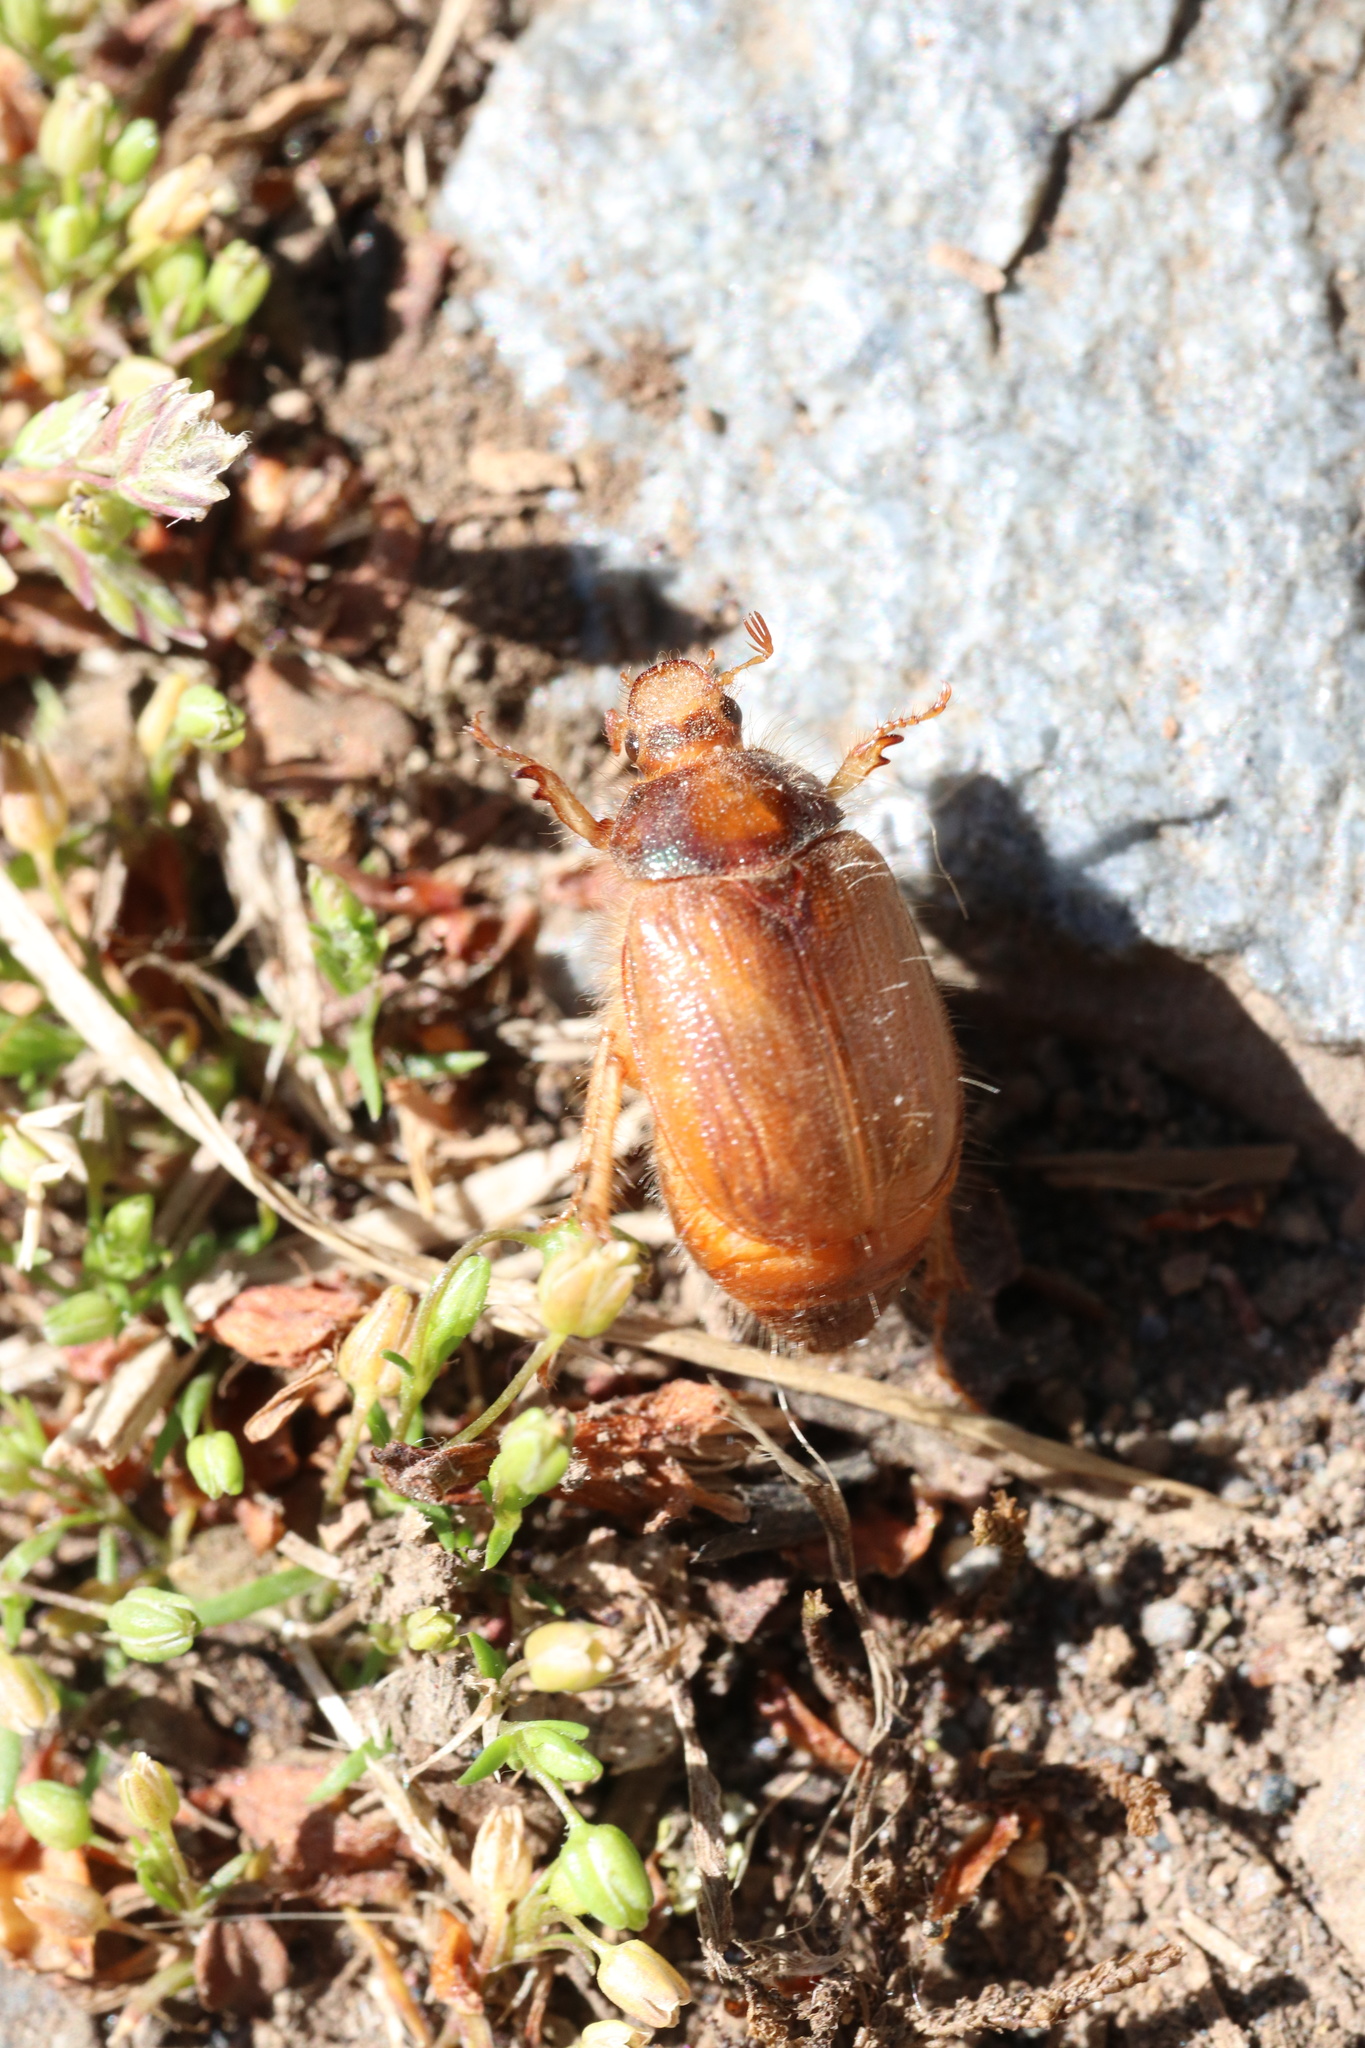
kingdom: Animalia
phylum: Arthropoda
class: Insecta
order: Coleoptera
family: Scarabaeidae
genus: Phytholaema
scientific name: Phytholaema herrmanni
